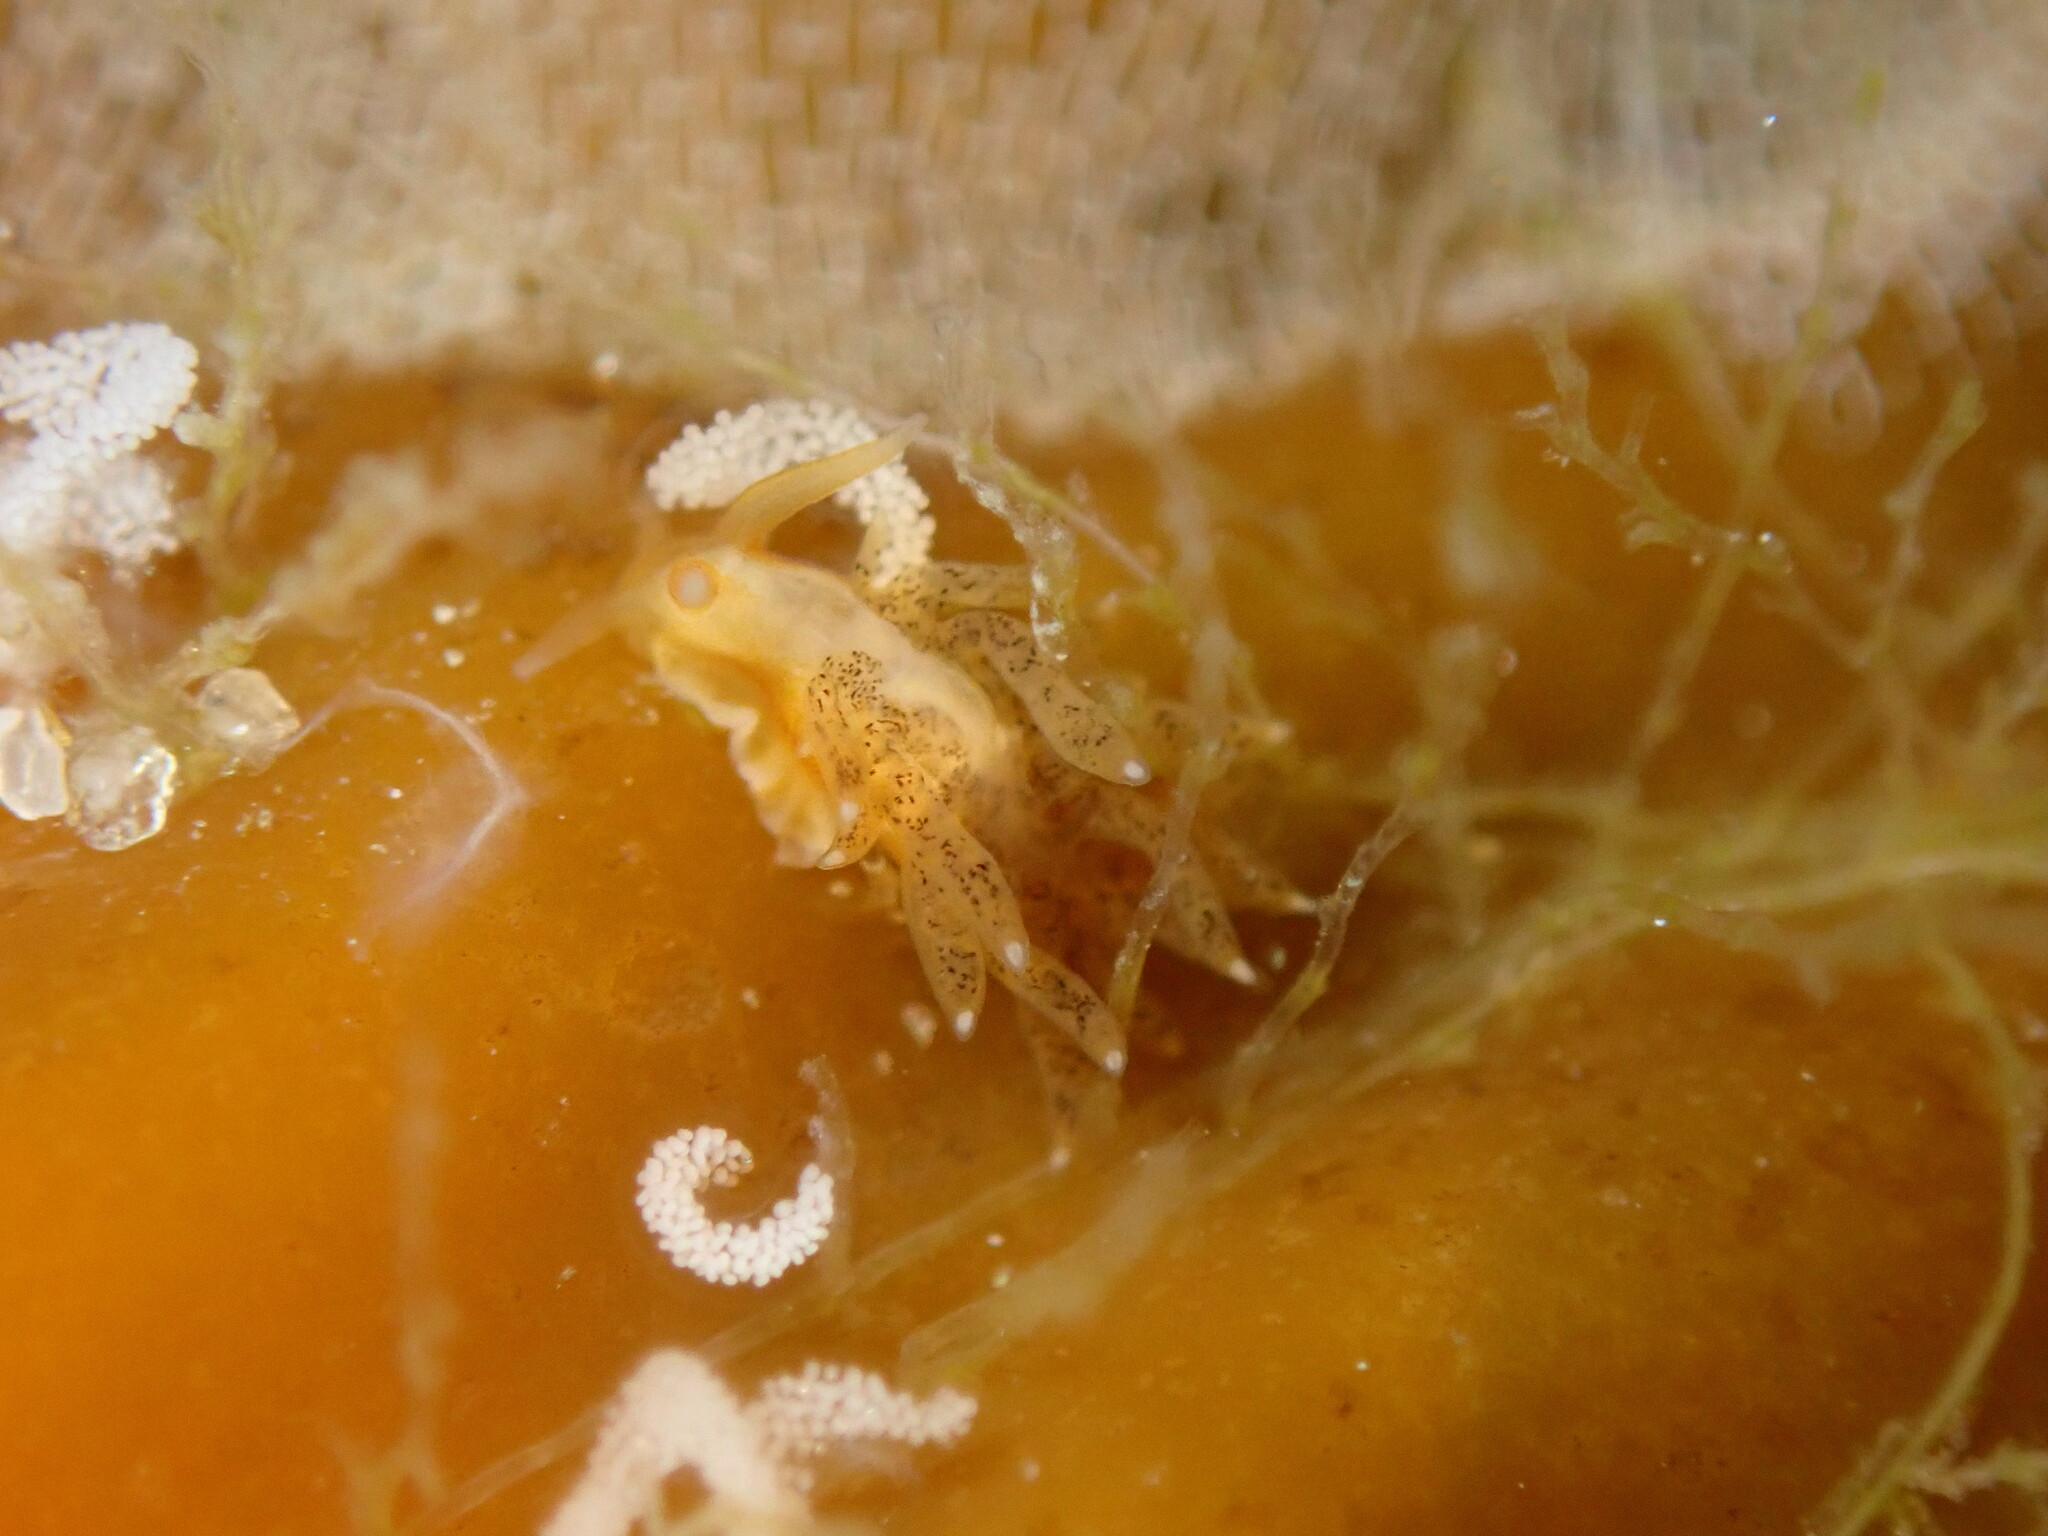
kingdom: Animalia
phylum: Mollusca
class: Gastropoda
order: Nudibranchia
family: Cuthonidae
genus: Cuthona
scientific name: Cuthona phoenix
